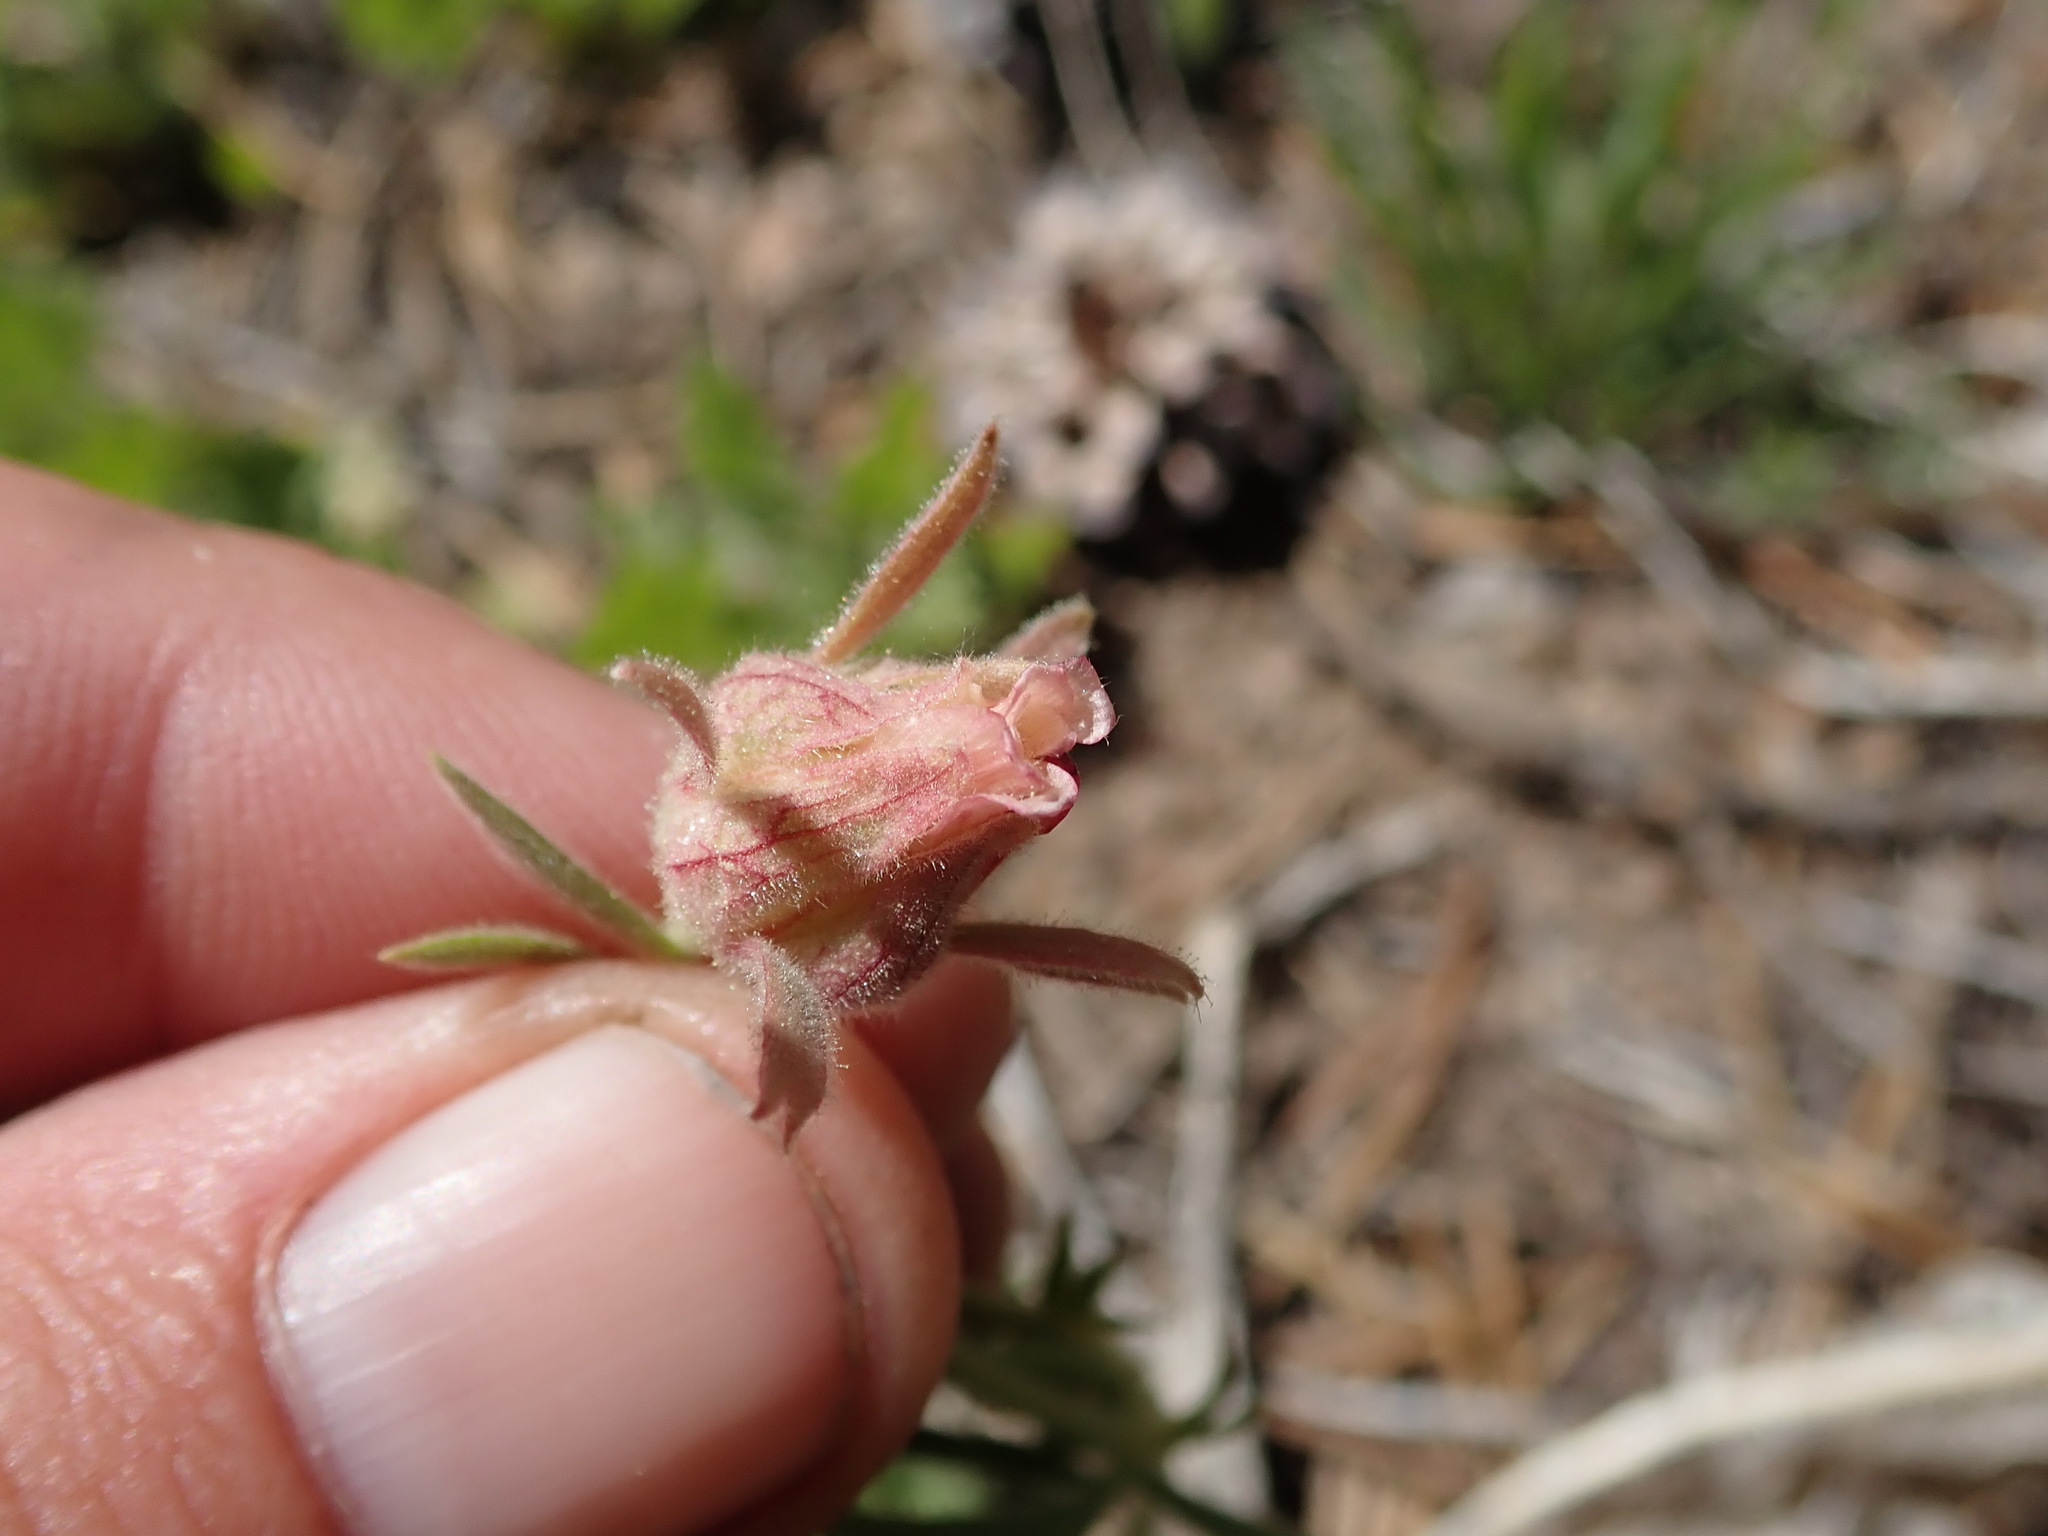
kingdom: Plantae
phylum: Tracheophyta
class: Magnoliopsida
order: Rosales
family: Rosaceae
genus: Geum
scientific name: Geum triflorum
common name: Old man's whiskers
